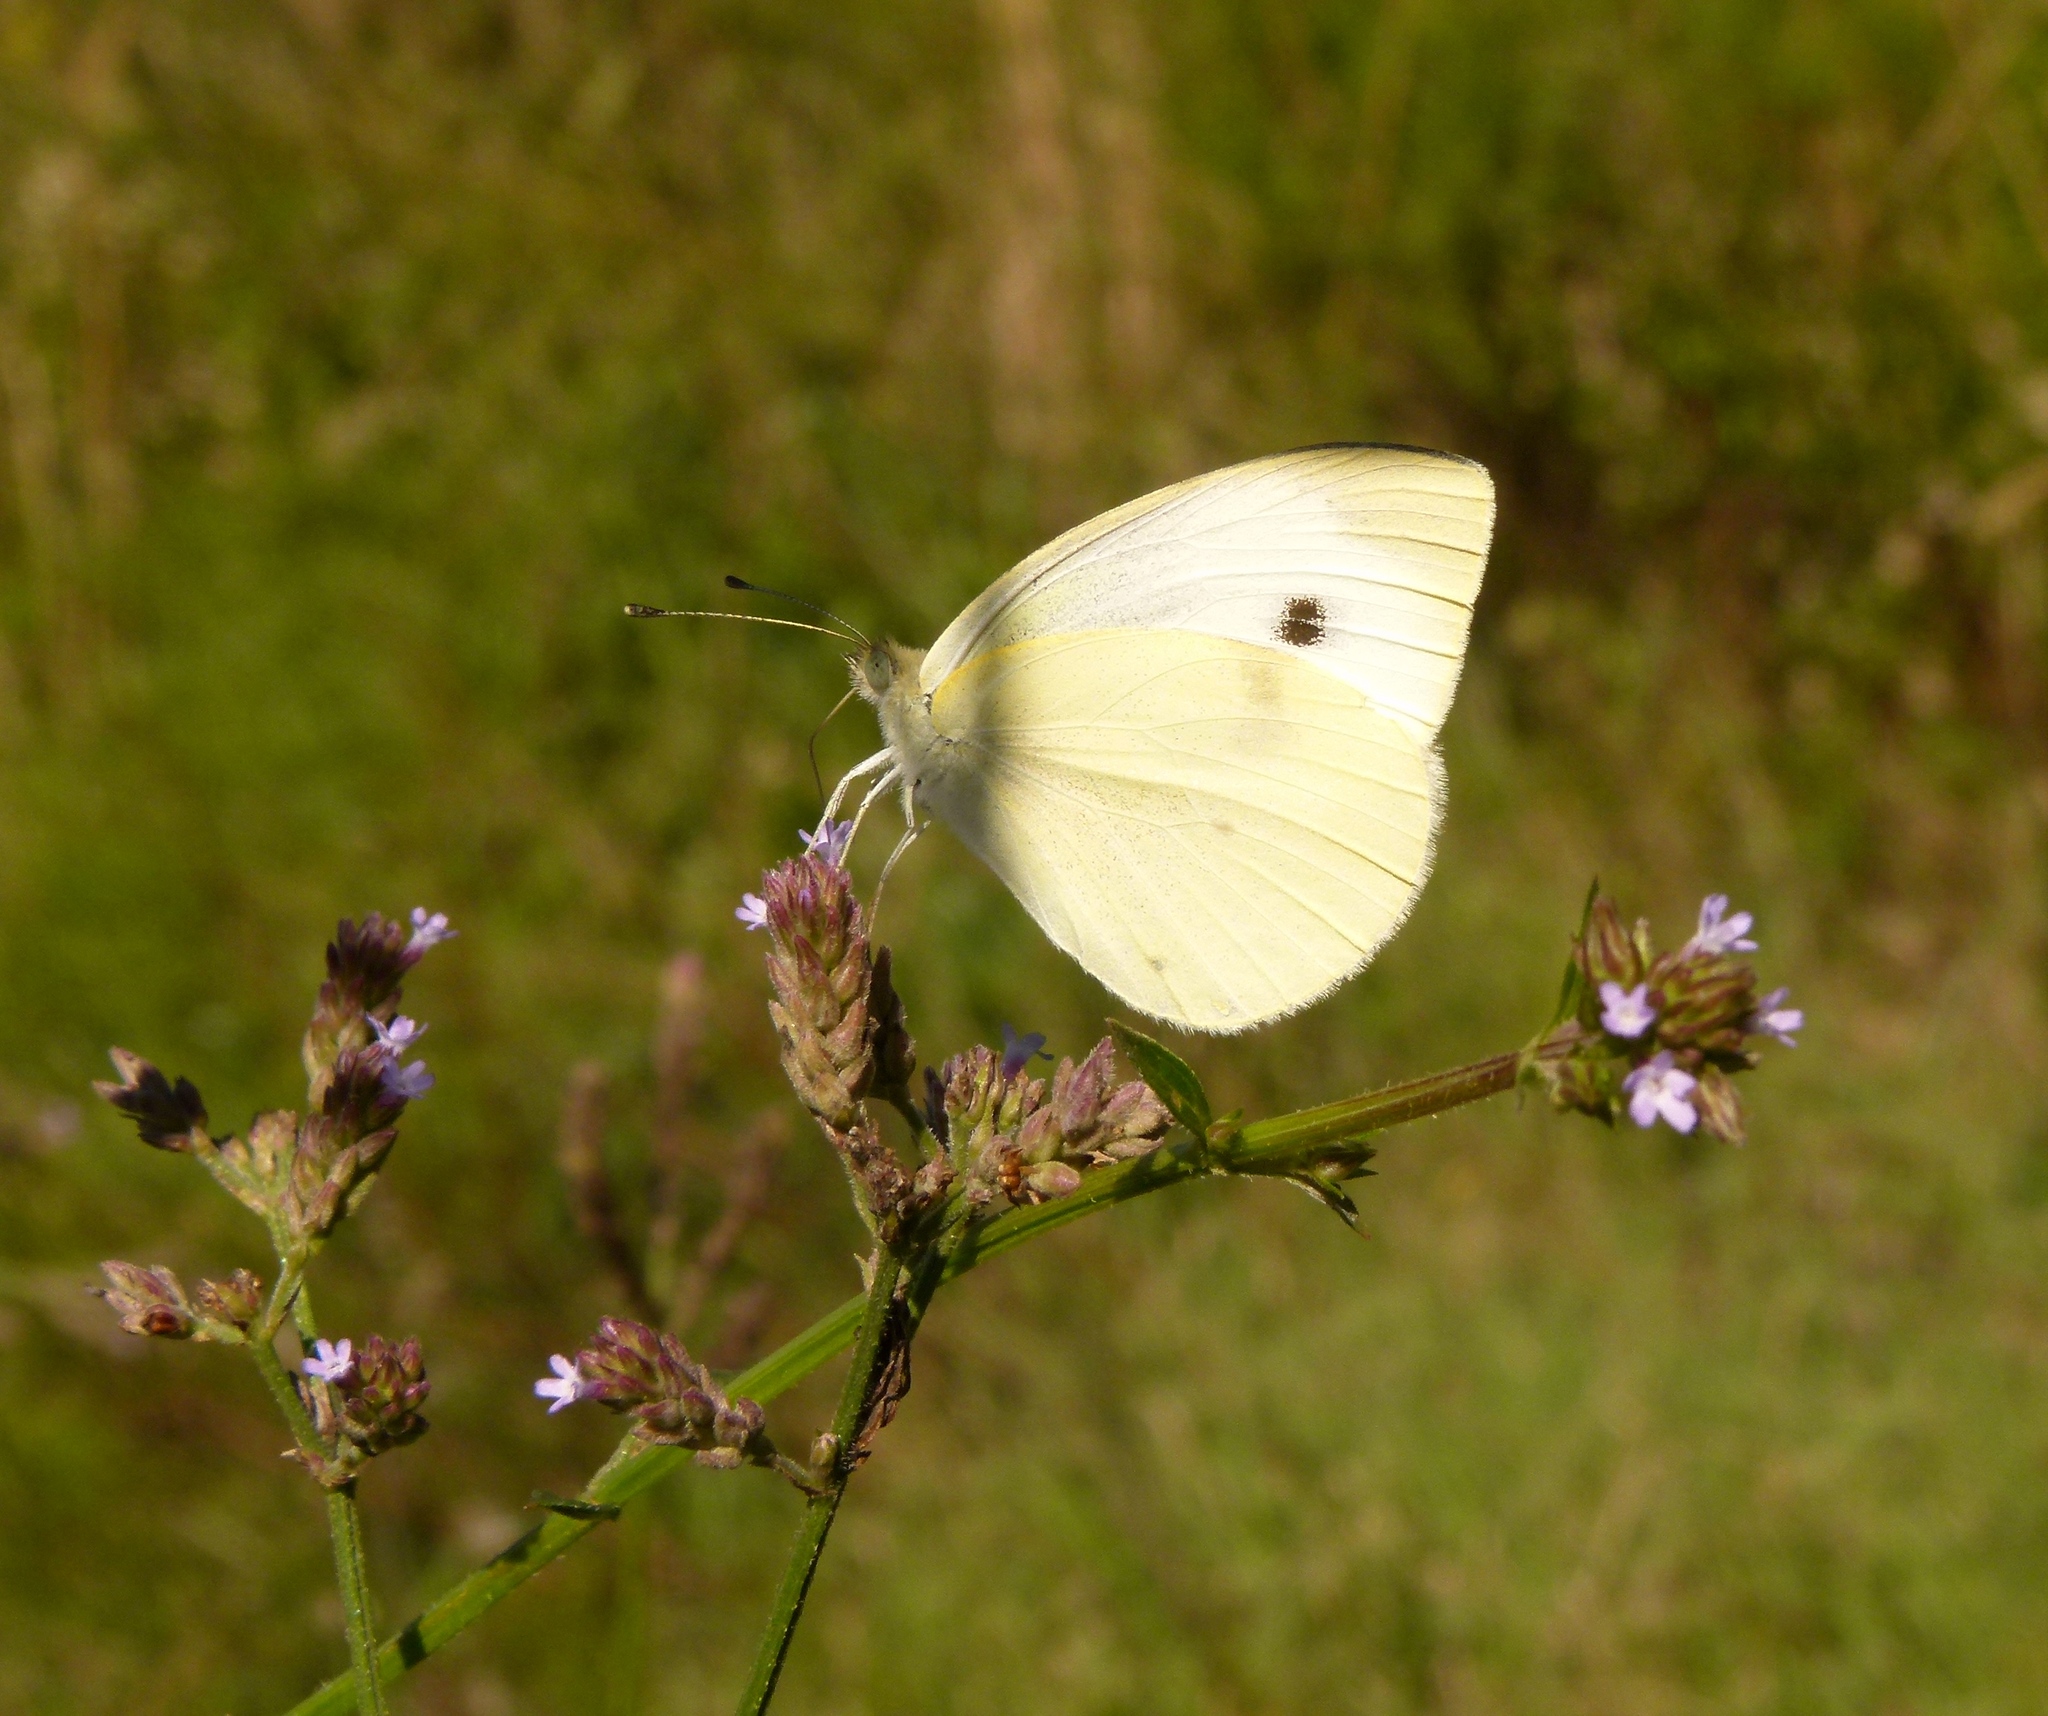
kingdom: Animalia
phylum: Arthropoda
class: Insecta
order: Lepidoptera
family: Pieridae
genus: Pieris
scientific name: Pieris rapae
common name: Small white
